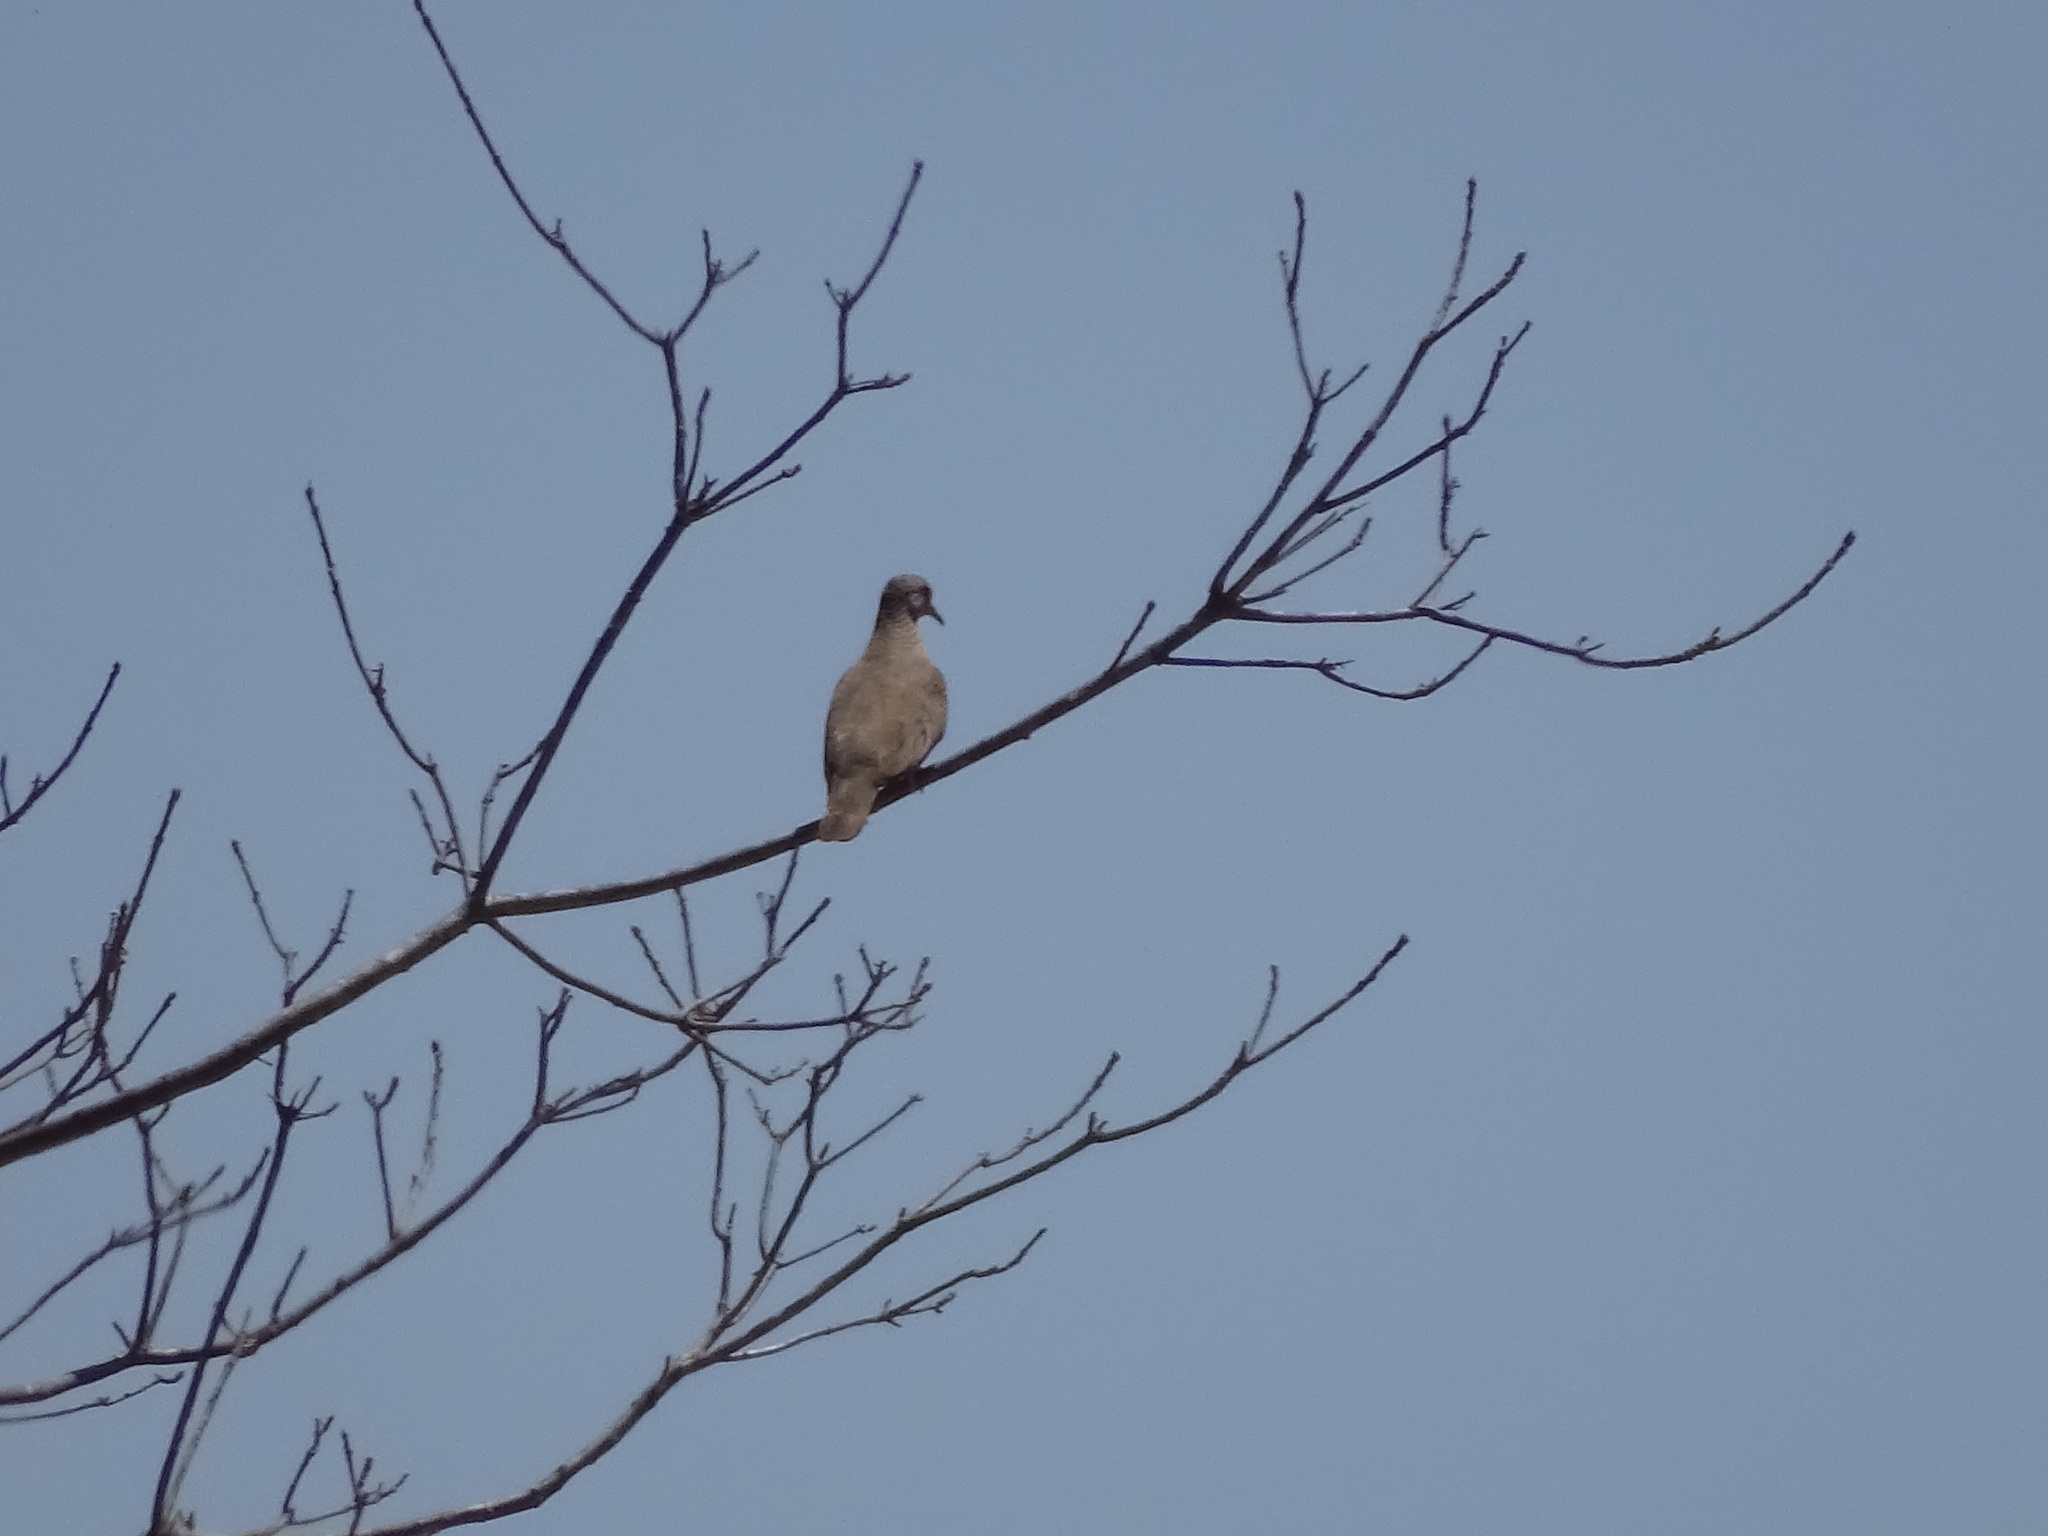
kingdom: Animalia
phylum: Chordata
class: Aves
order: Columbiformes
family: Columbidae
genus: Streptopelia
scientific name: Streptopelia decaocto
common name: Eurasian collared dove
